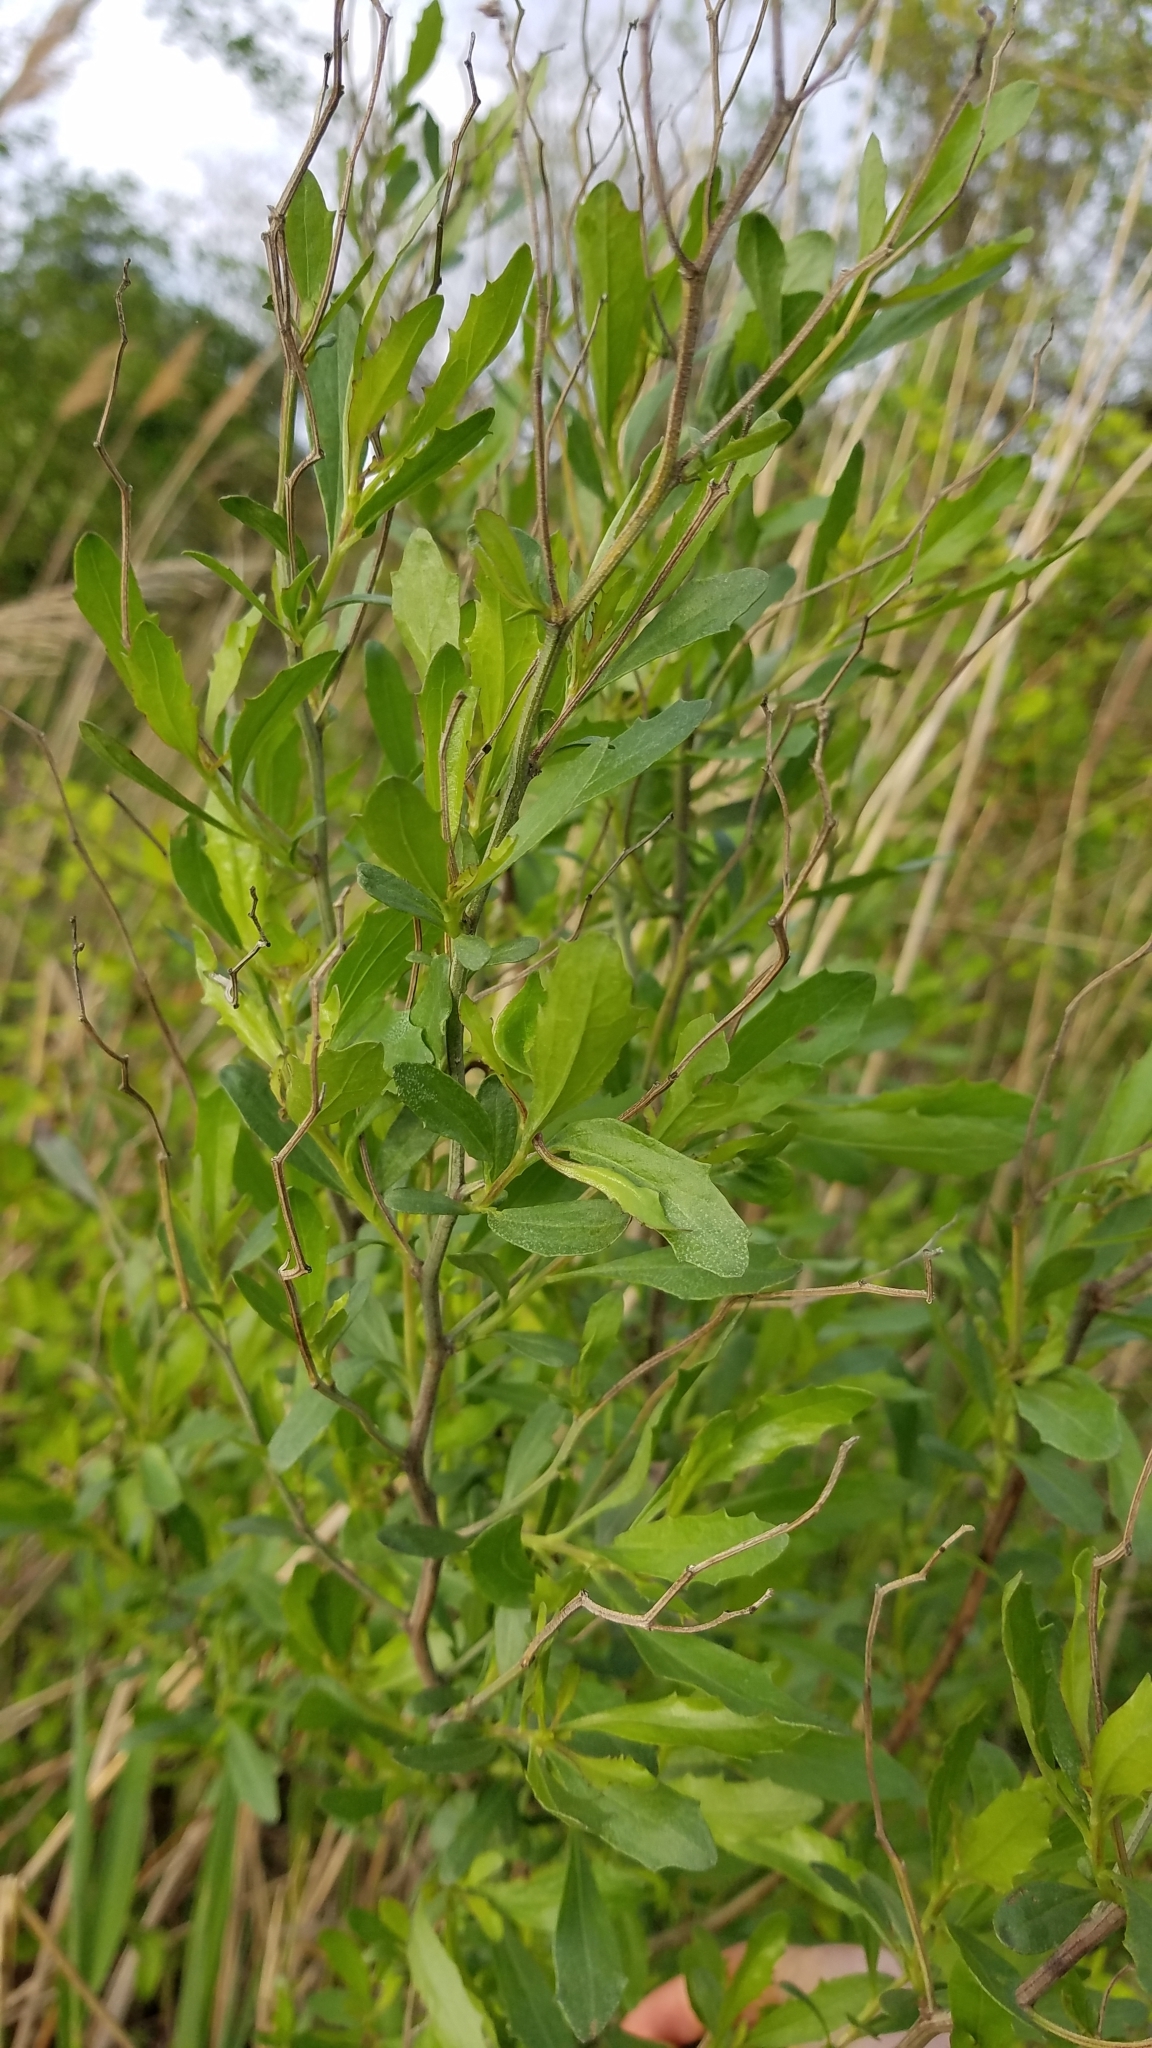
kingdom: Plantae
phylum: Tracheophyta
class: Magnoliopsida
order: Asterales
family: Asteraceae
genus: Baccharis
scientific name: Baccharis halimifolia
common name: Eastern baccharis
